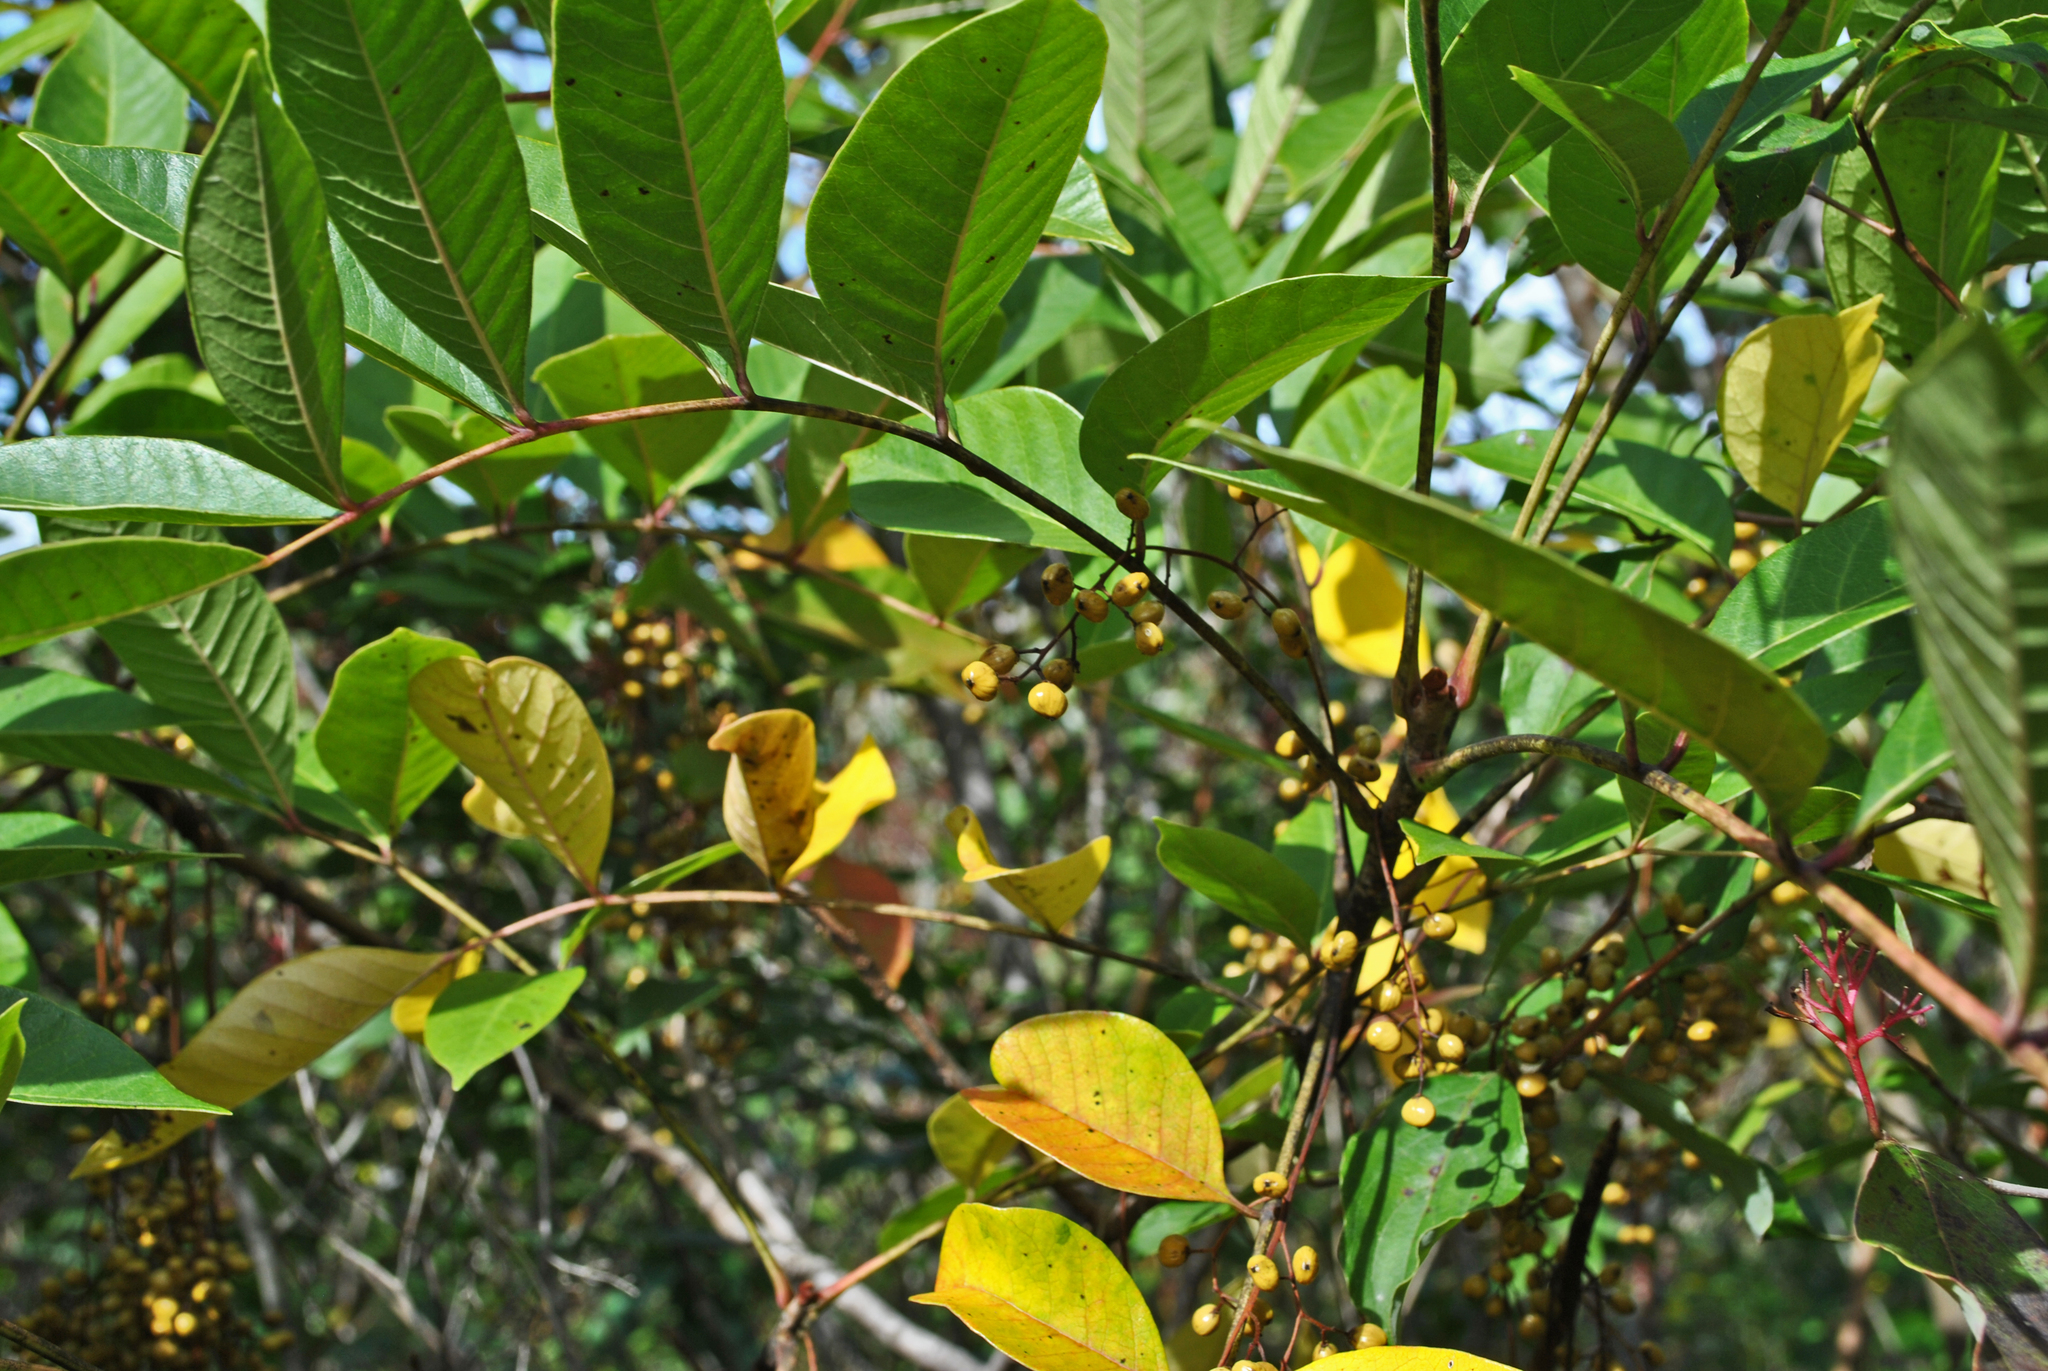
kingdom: Plantae
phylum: Tracheophyta
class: Magnoliopsida
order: Sapindales
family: Anacardiaceae
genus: Toxicodendron
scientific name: Toxicodendron vernix
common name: Poison sumac
